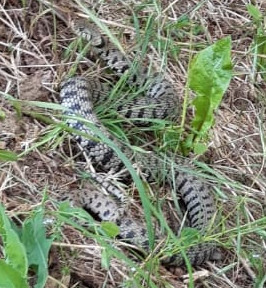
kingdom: Animalia
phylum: Chordata
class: Squamata
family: Colubridae
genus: Natrix
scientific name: Natrix helvetica
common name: Banded grass snake
